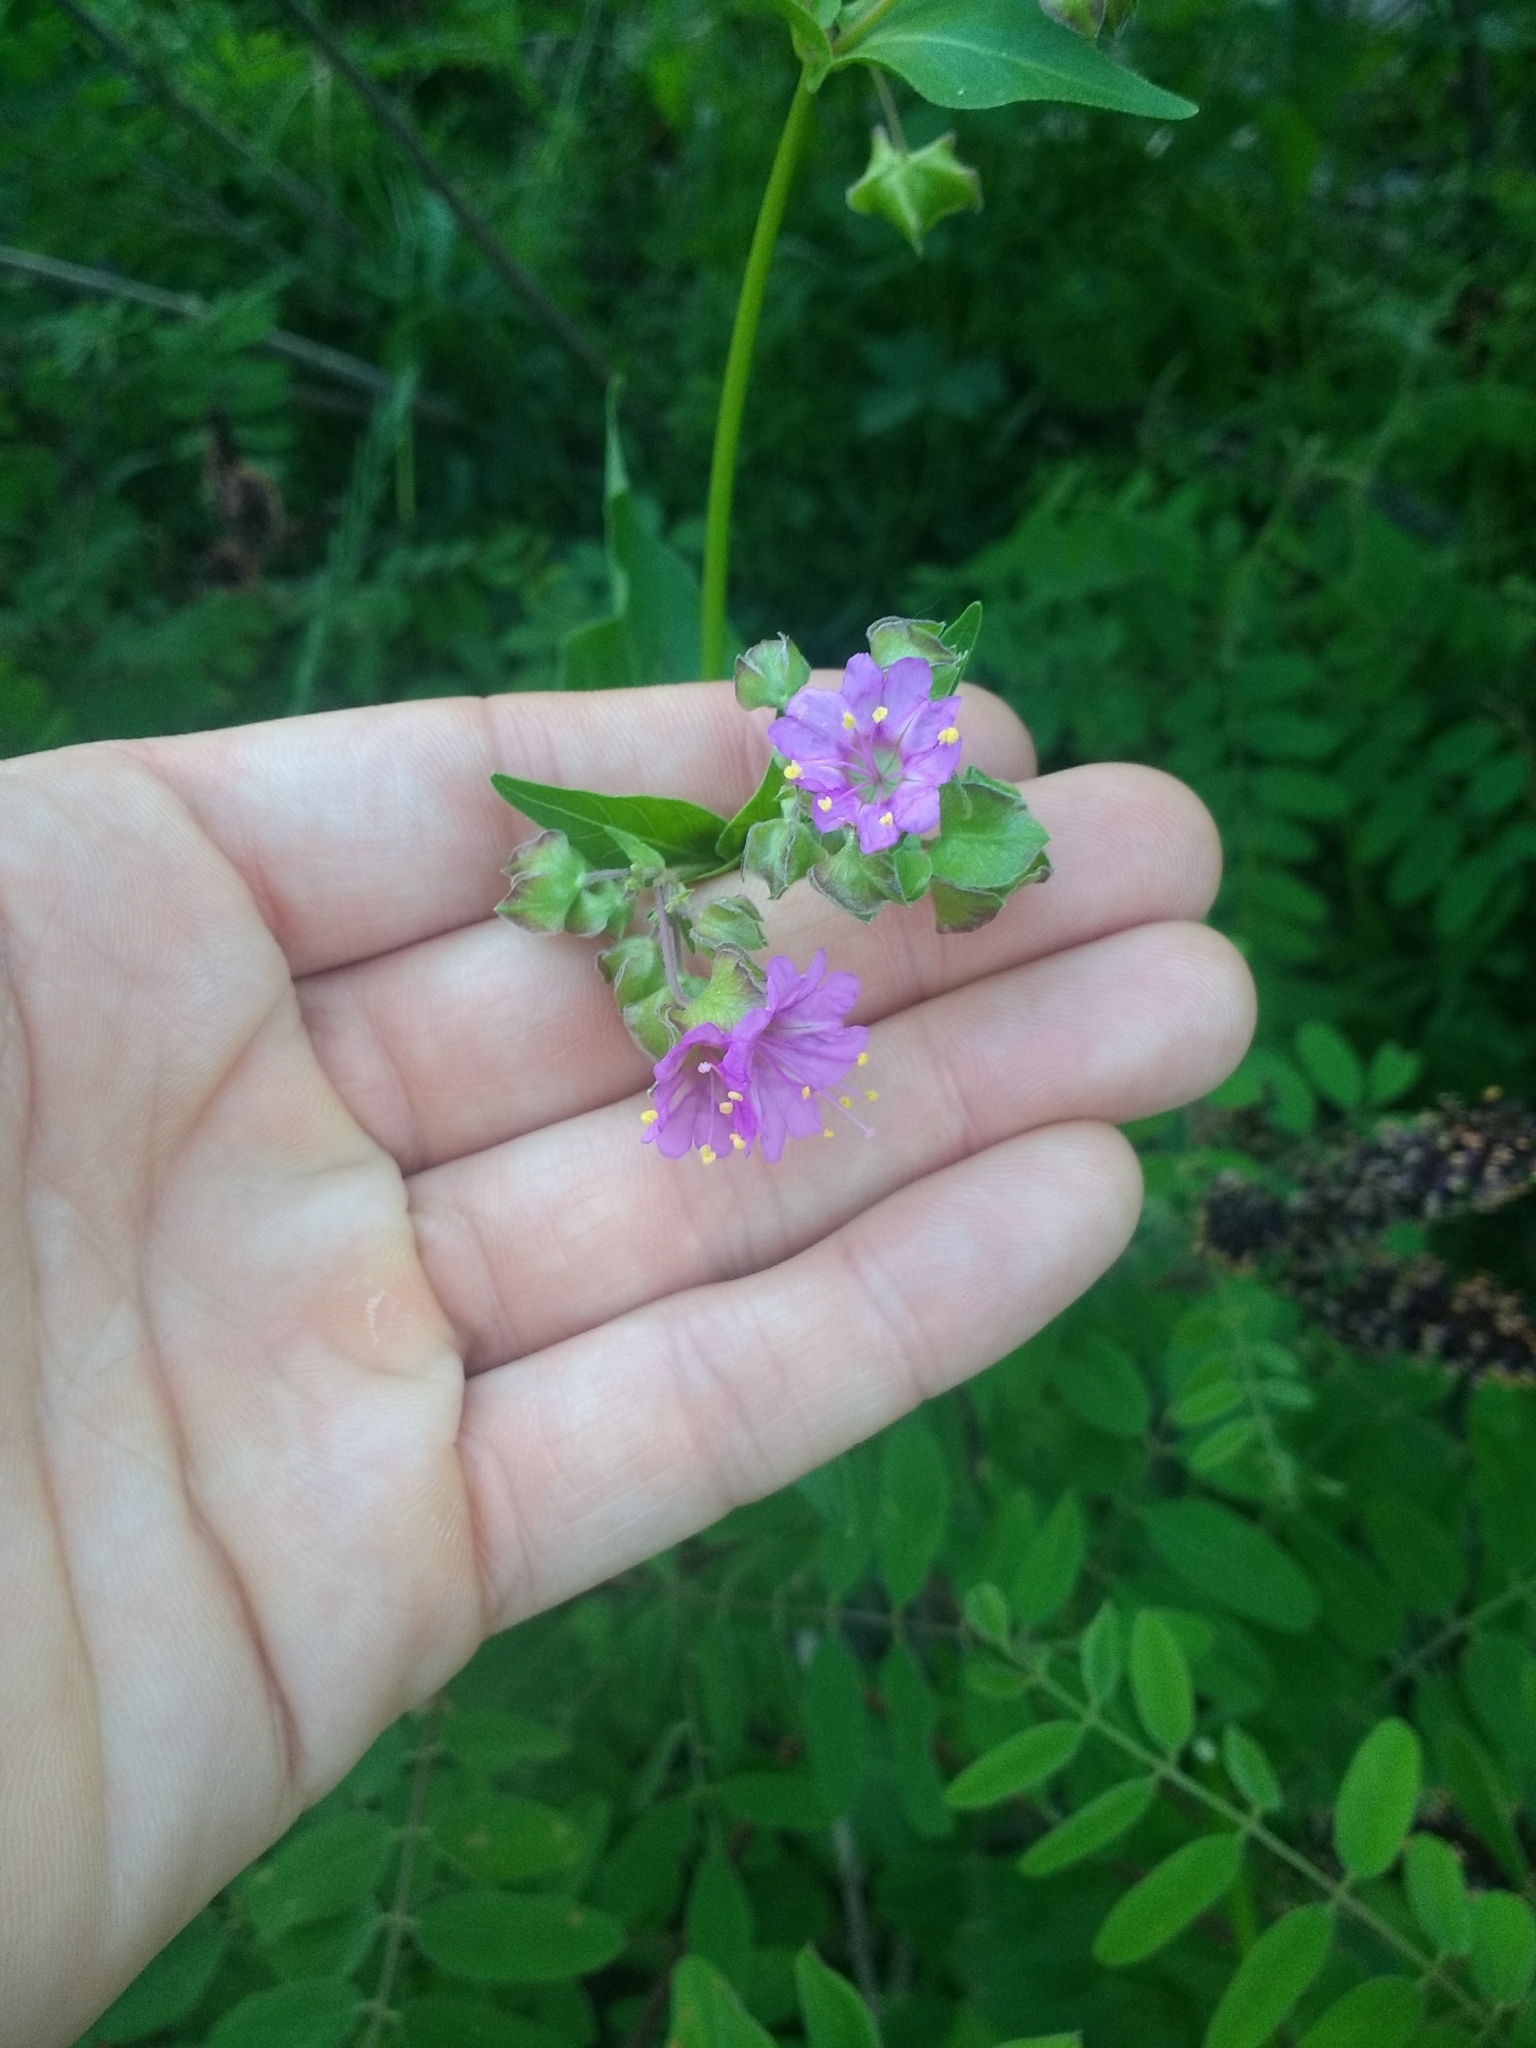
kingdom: Plantae
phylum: Tracheophyta
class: Magnoliopsida
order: Caryophyllales
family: Nyctaginaceae
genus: Mirabilis
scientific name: Mirabilis nyctaginea
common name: Umbrella wort
